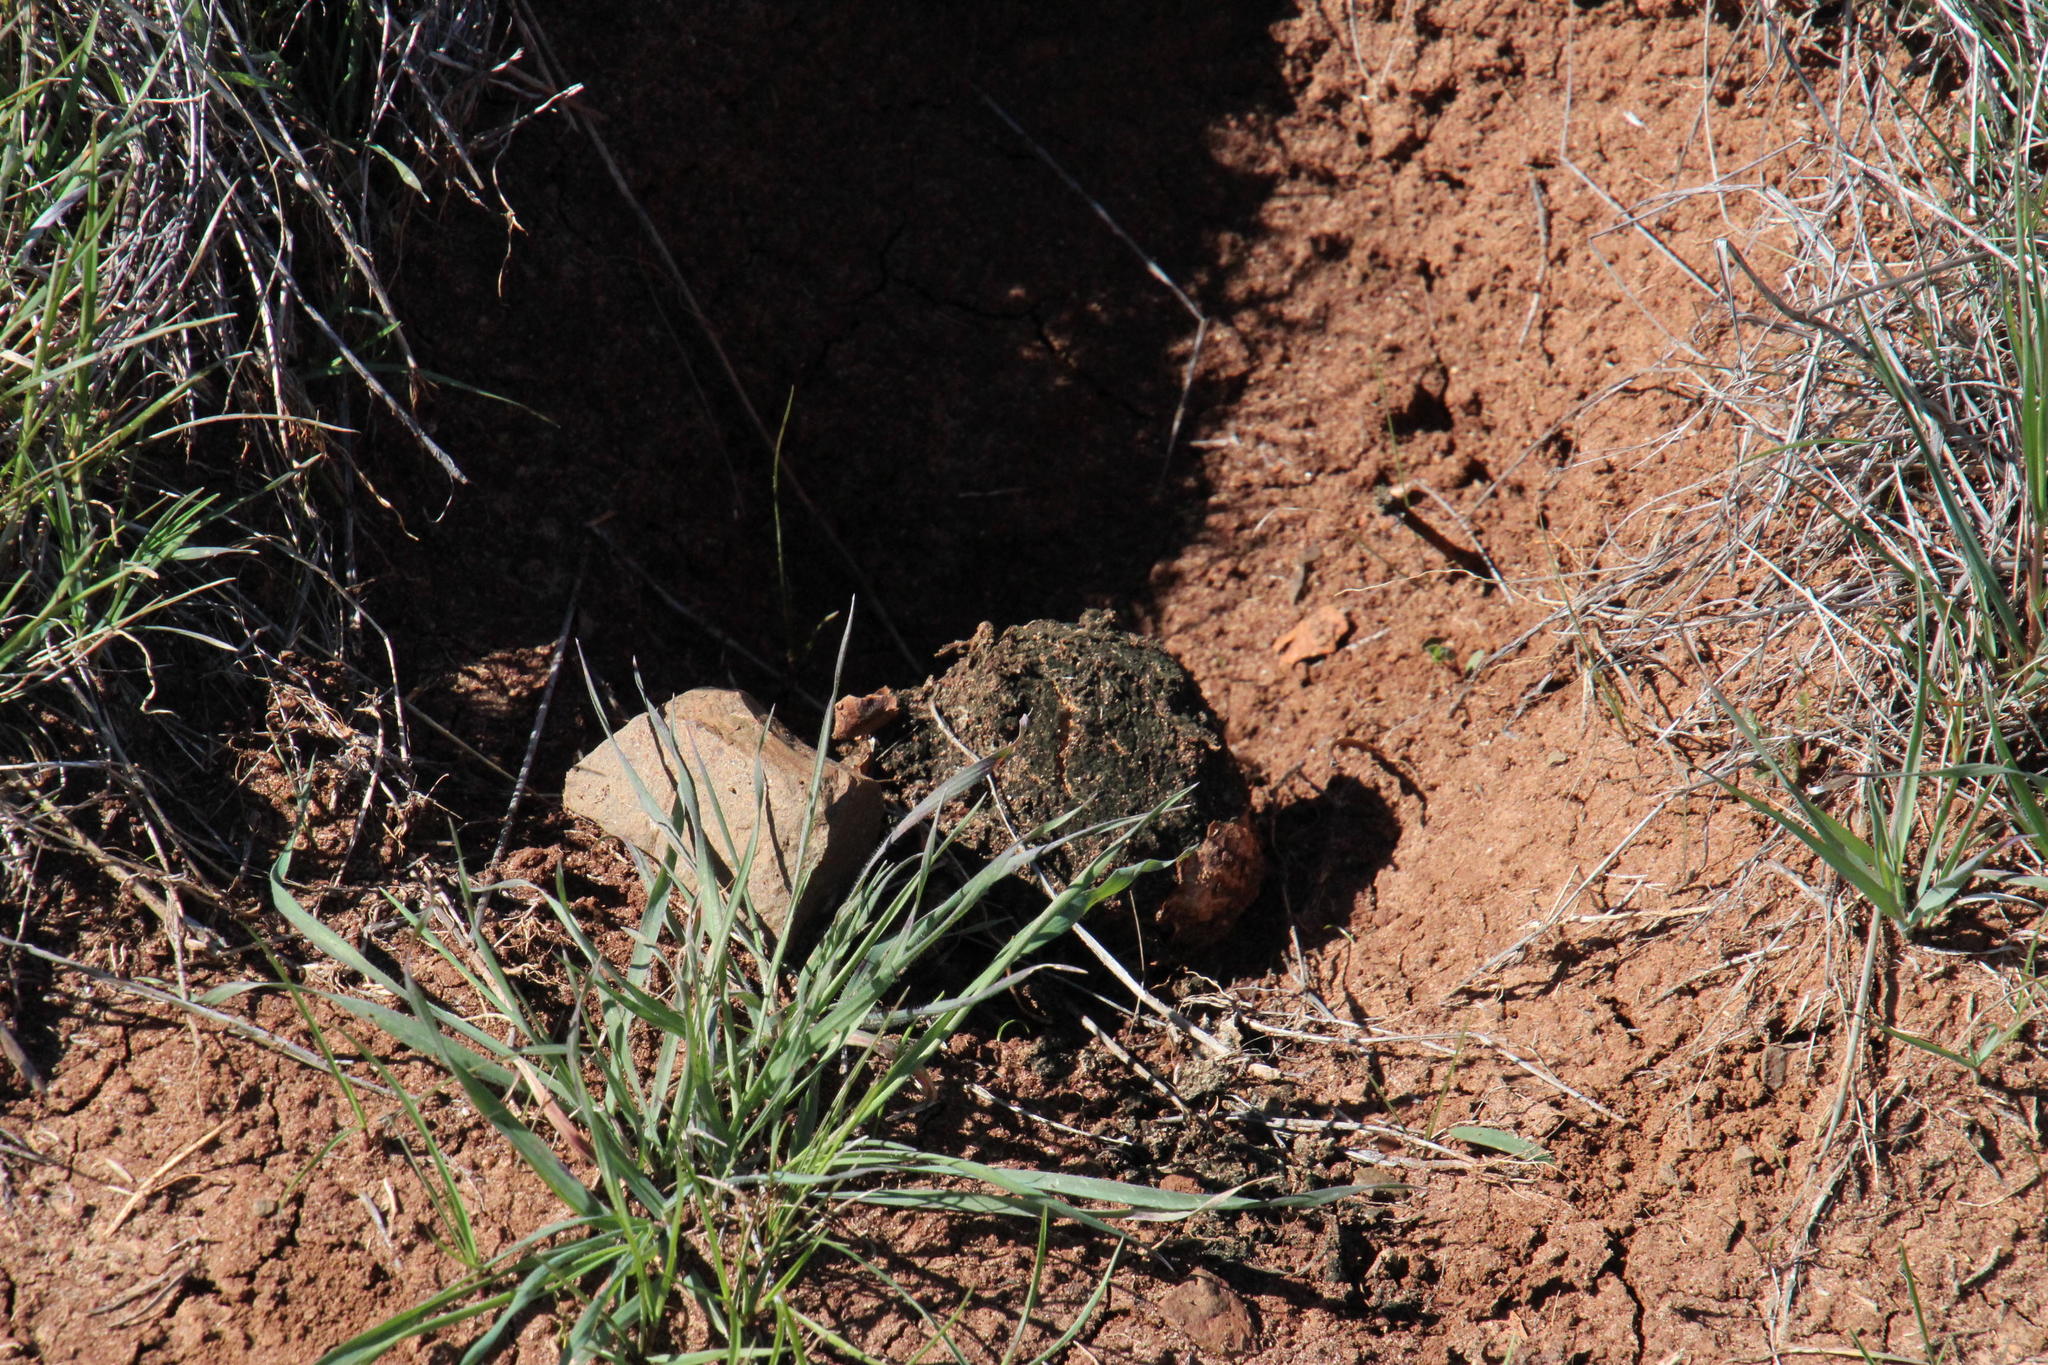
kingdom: Animalia
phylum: Chordata
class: Mammalia
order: Rodentia
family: Hystricidae
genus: Hystrix
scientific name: Hystrix africaeaustralis
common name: Cape porcupine
